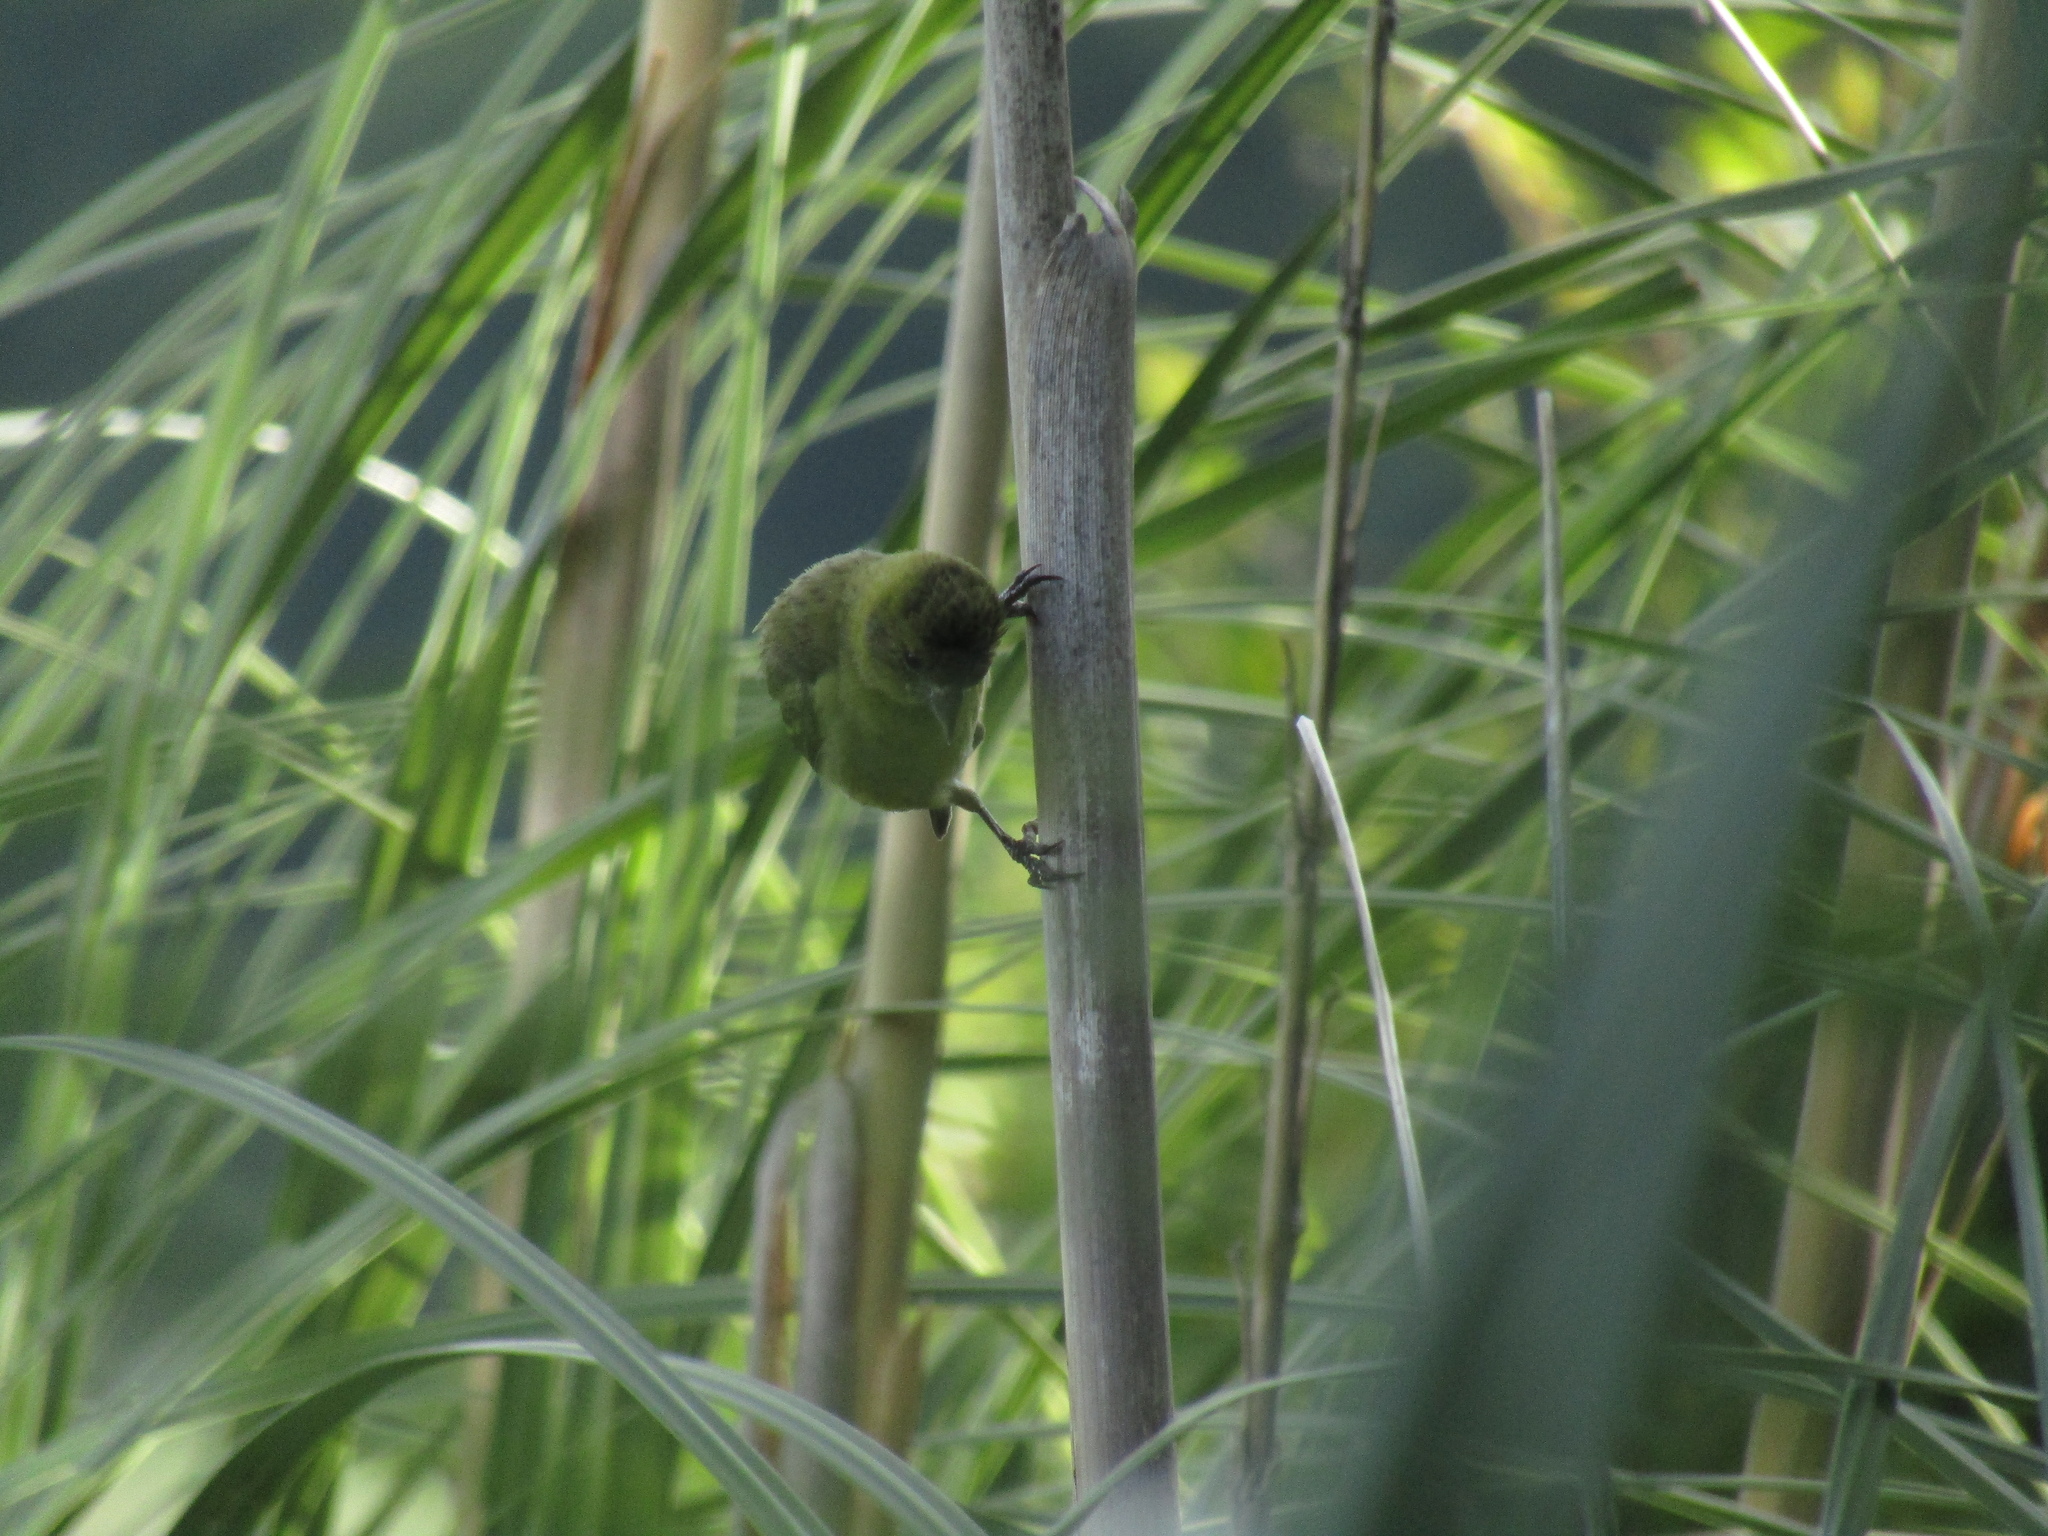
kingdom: Animalia
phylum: Chordata
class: Aves
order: Passeriformes
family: Fringillidae
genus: Spinus
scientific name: Spinus magellanicus
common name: Hooded siskin
